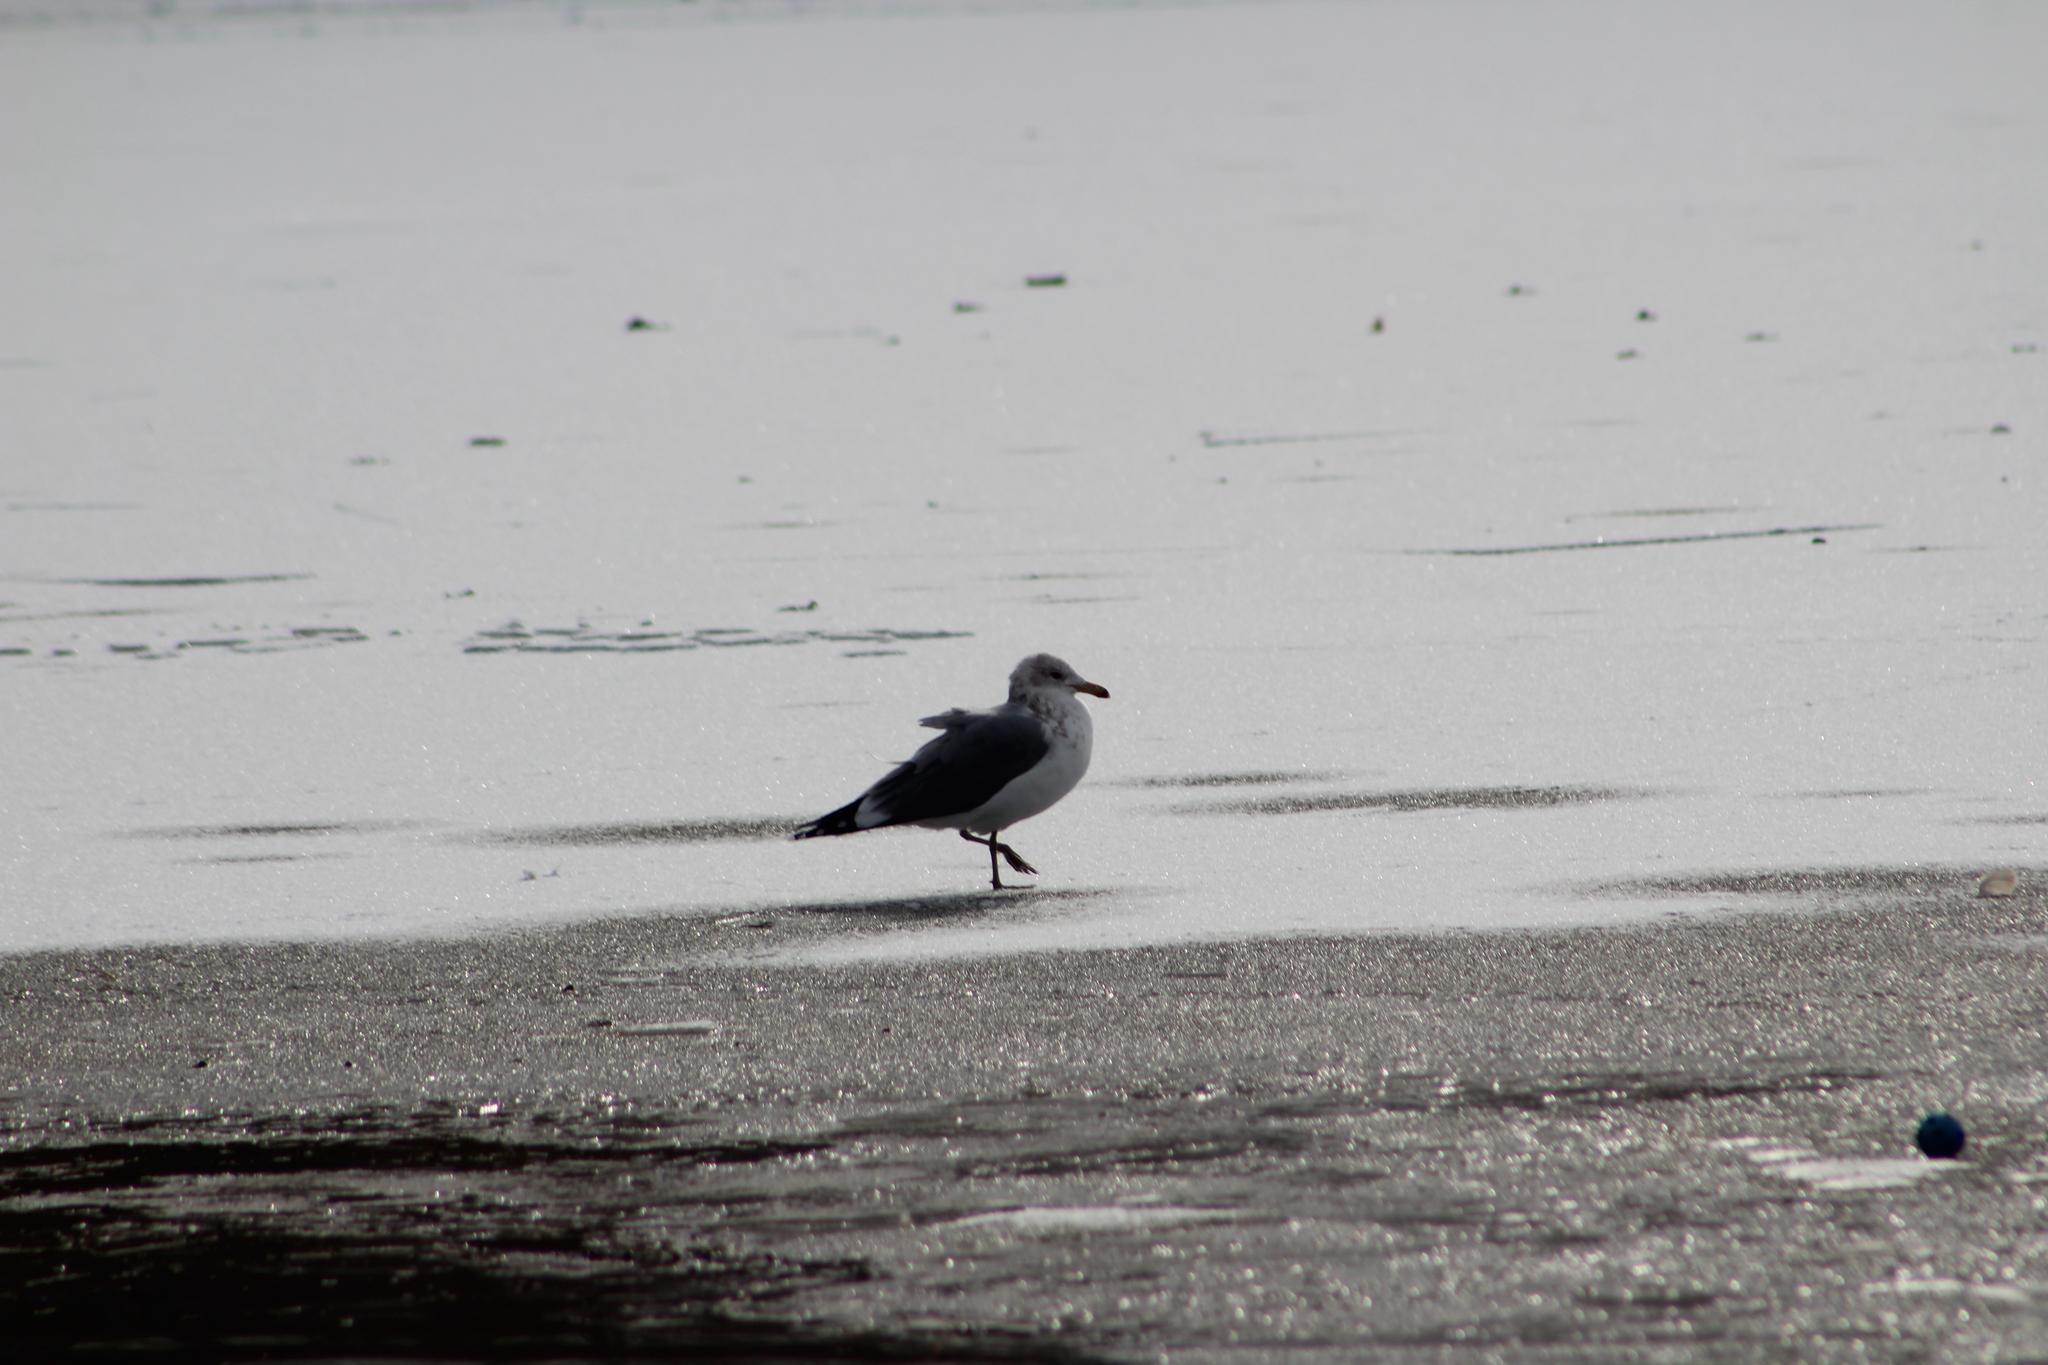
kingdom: Animalia
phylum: Chordata
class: Aves
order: Charadriiformes
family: Laridae
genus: Larus
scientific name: Larus californicus
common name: California gull
